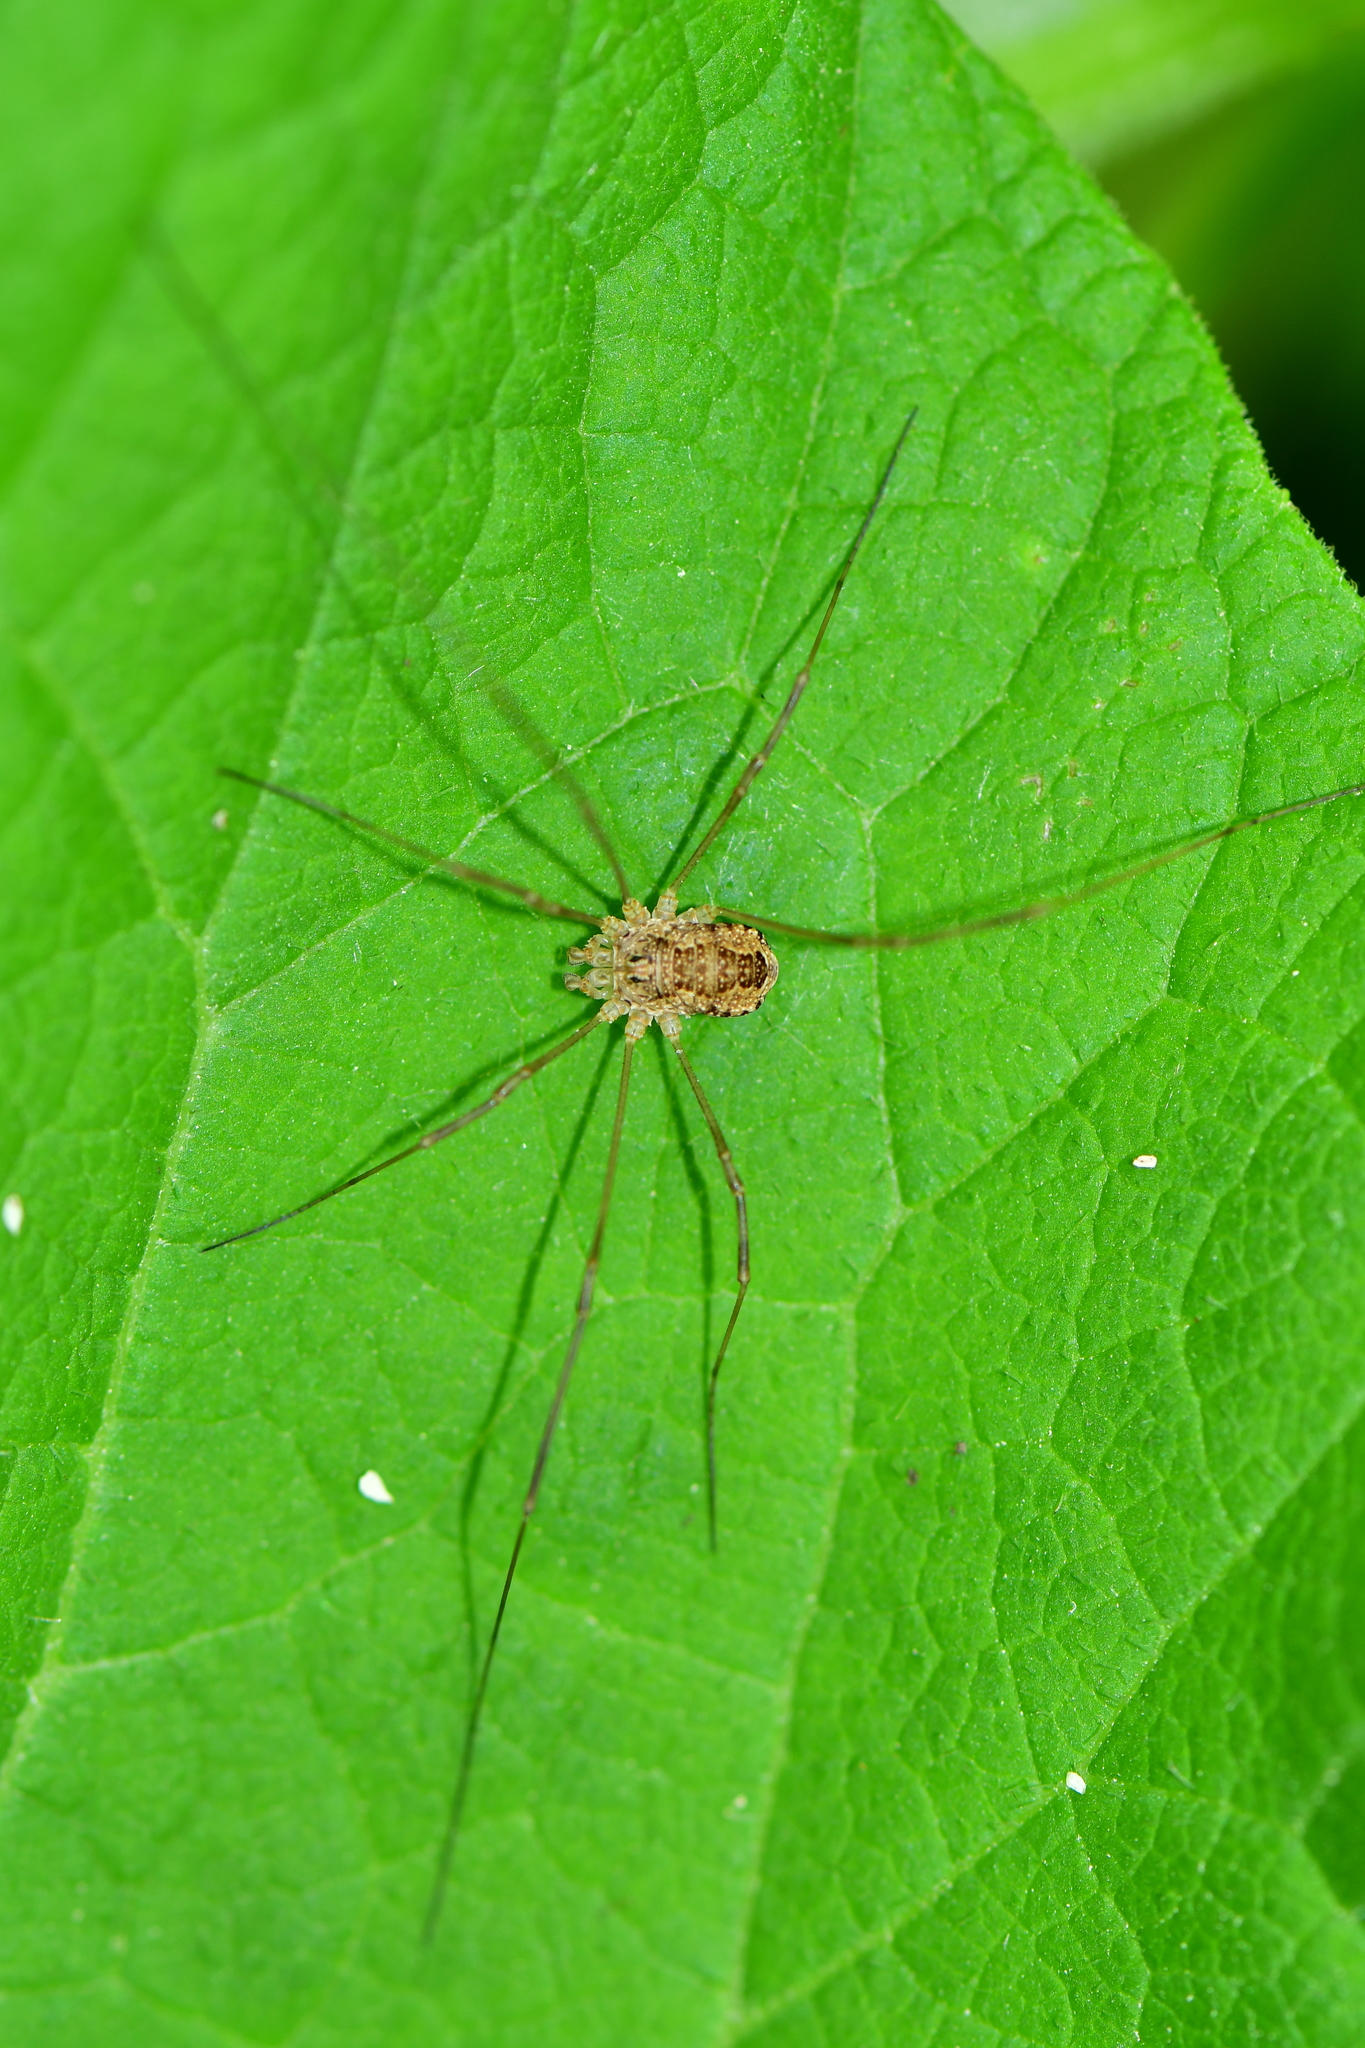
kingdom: Animalia
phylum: Arthropoda
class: Arachnida
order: Opiliones
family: Phalangiidae
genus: Rilaena
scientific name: Rilaena triangularis
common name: Spring harvestman
